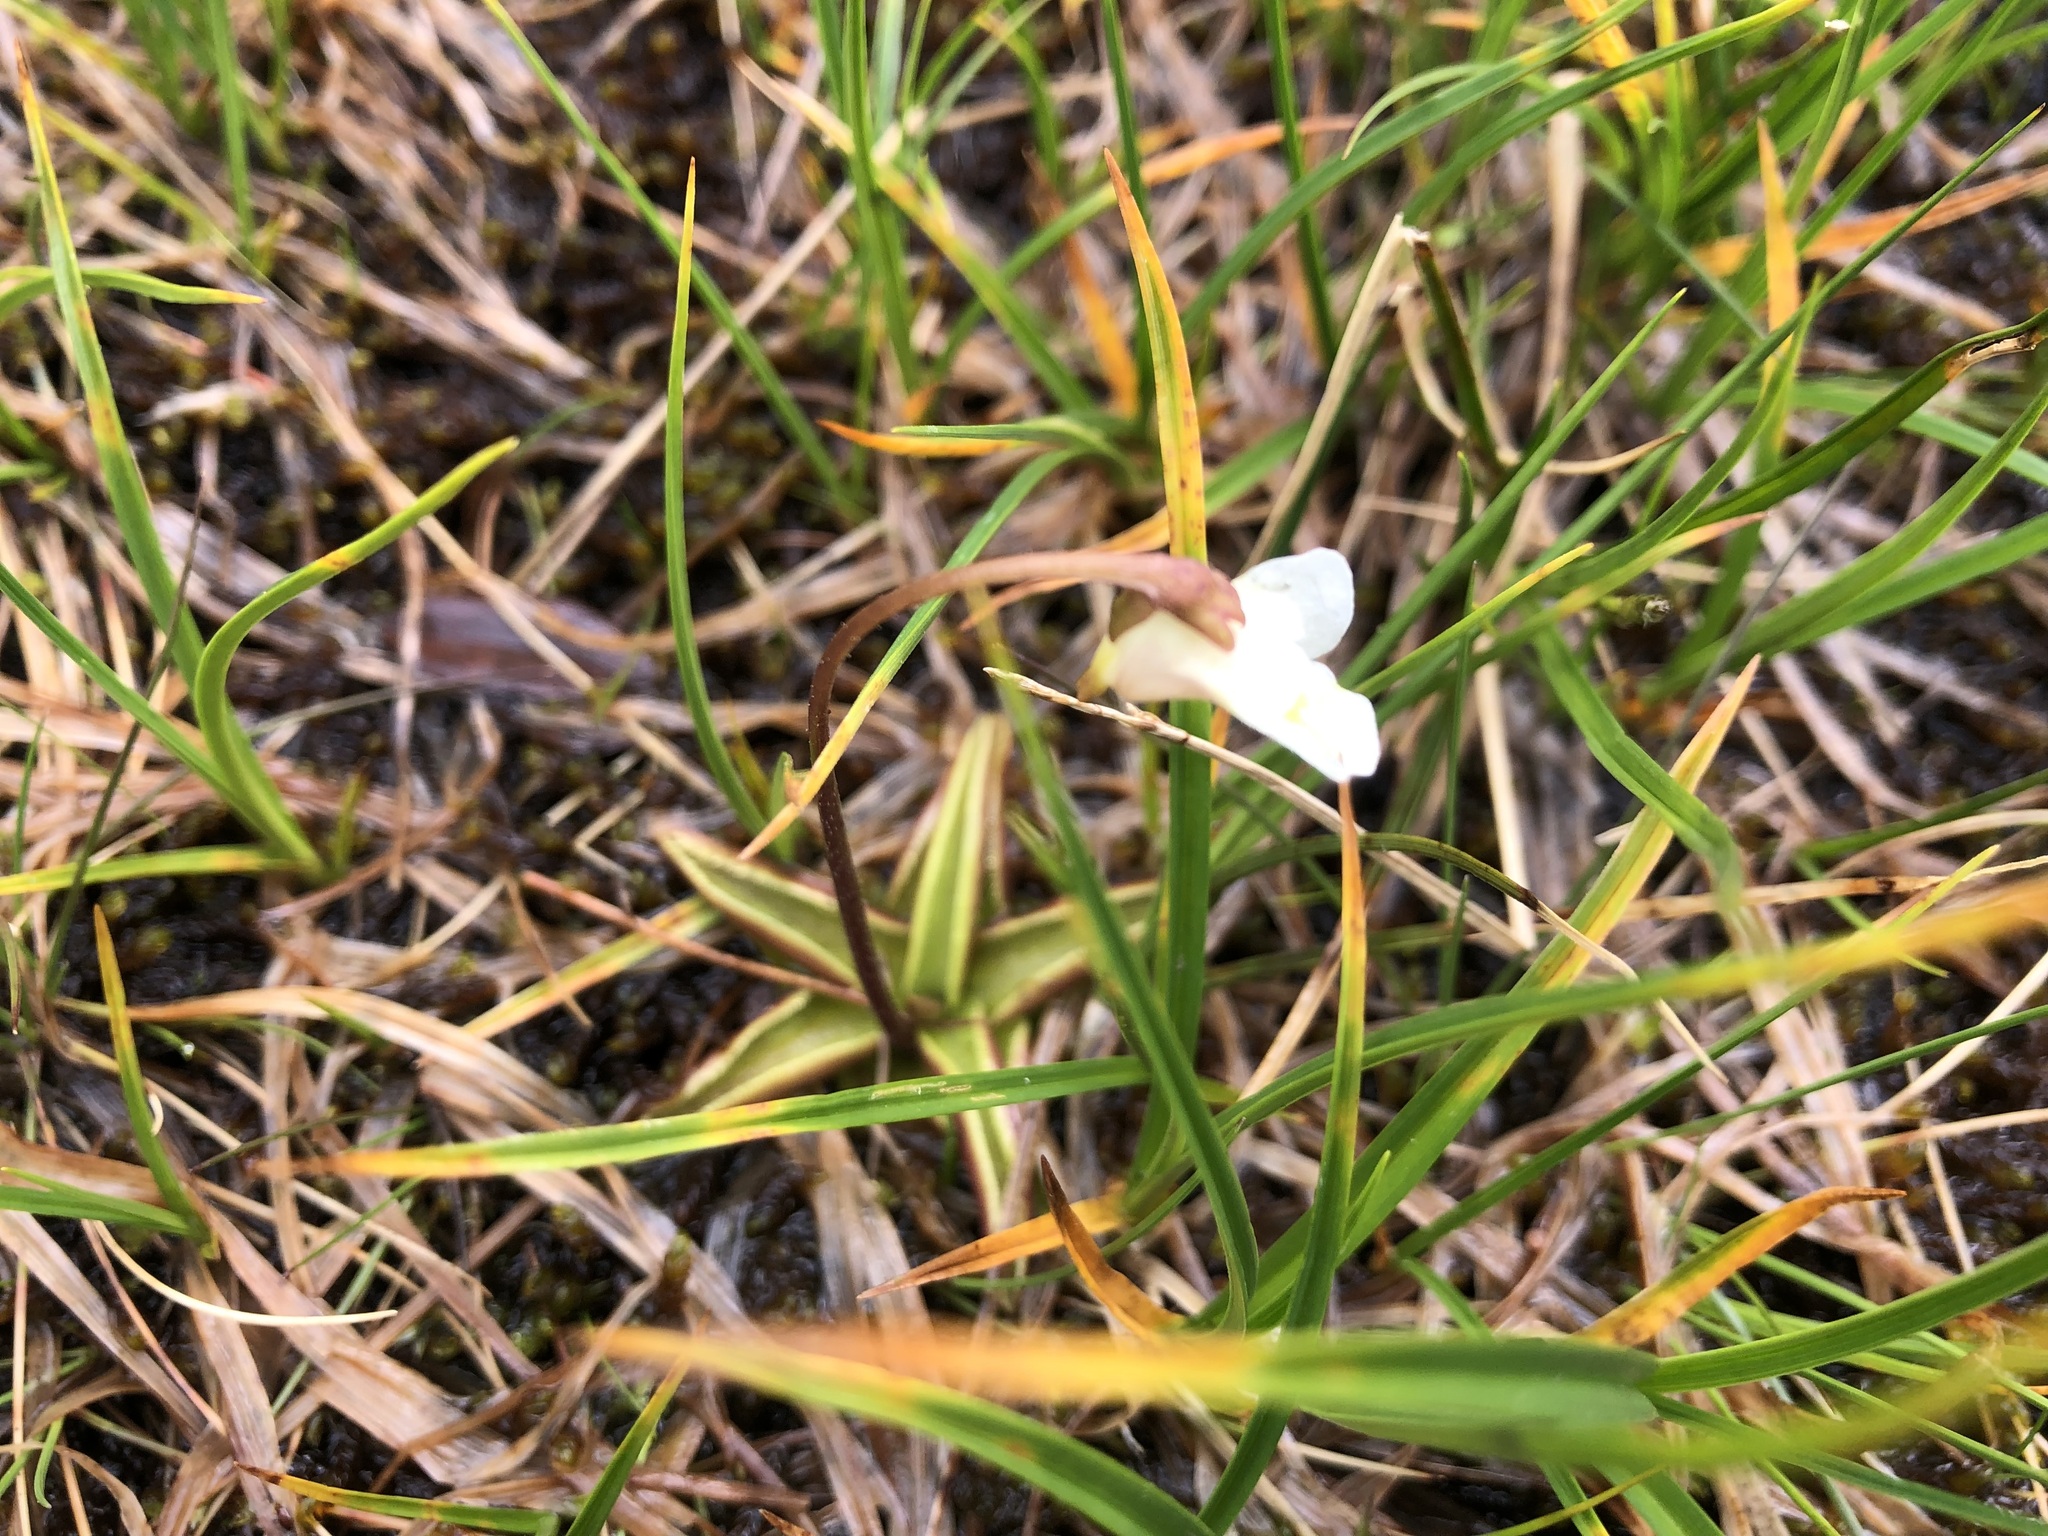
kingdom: Plantae
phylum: Tracheophyta
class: Magnoliopsida
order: Lamiales
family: Lentibulariaceae
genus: Pinguicula
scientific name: Pinguicula alpina
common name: Alpine butterwort
